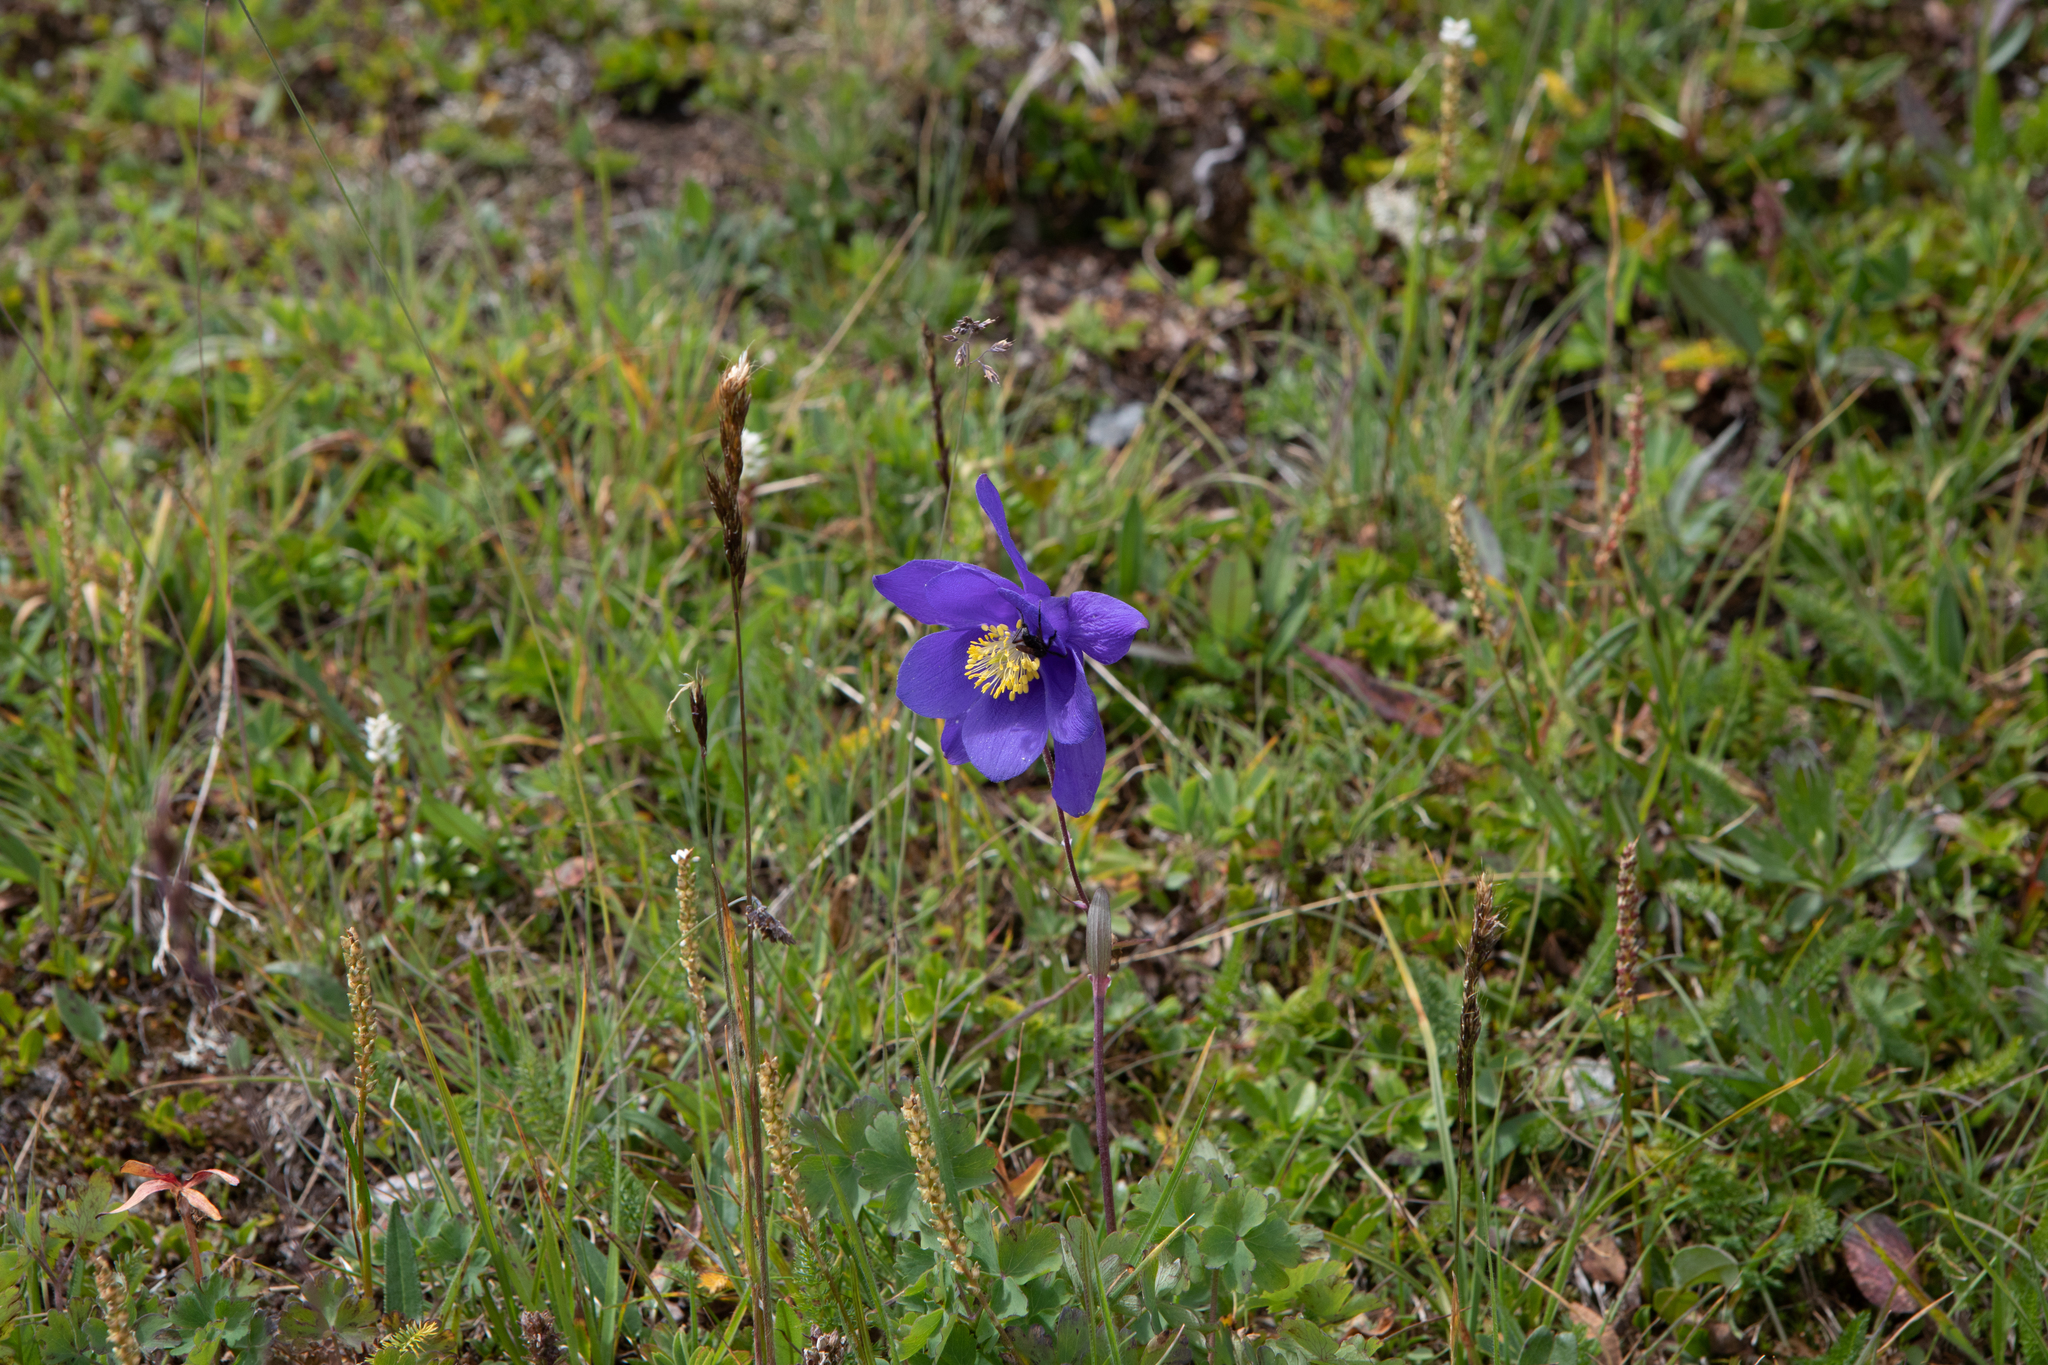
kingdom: Plantae
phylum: Tracheophyta
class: Magnoliopsida
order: Ranunculales
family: Ranunculaceae
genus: Aquilegia
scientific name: Aquilegia glandulosa
